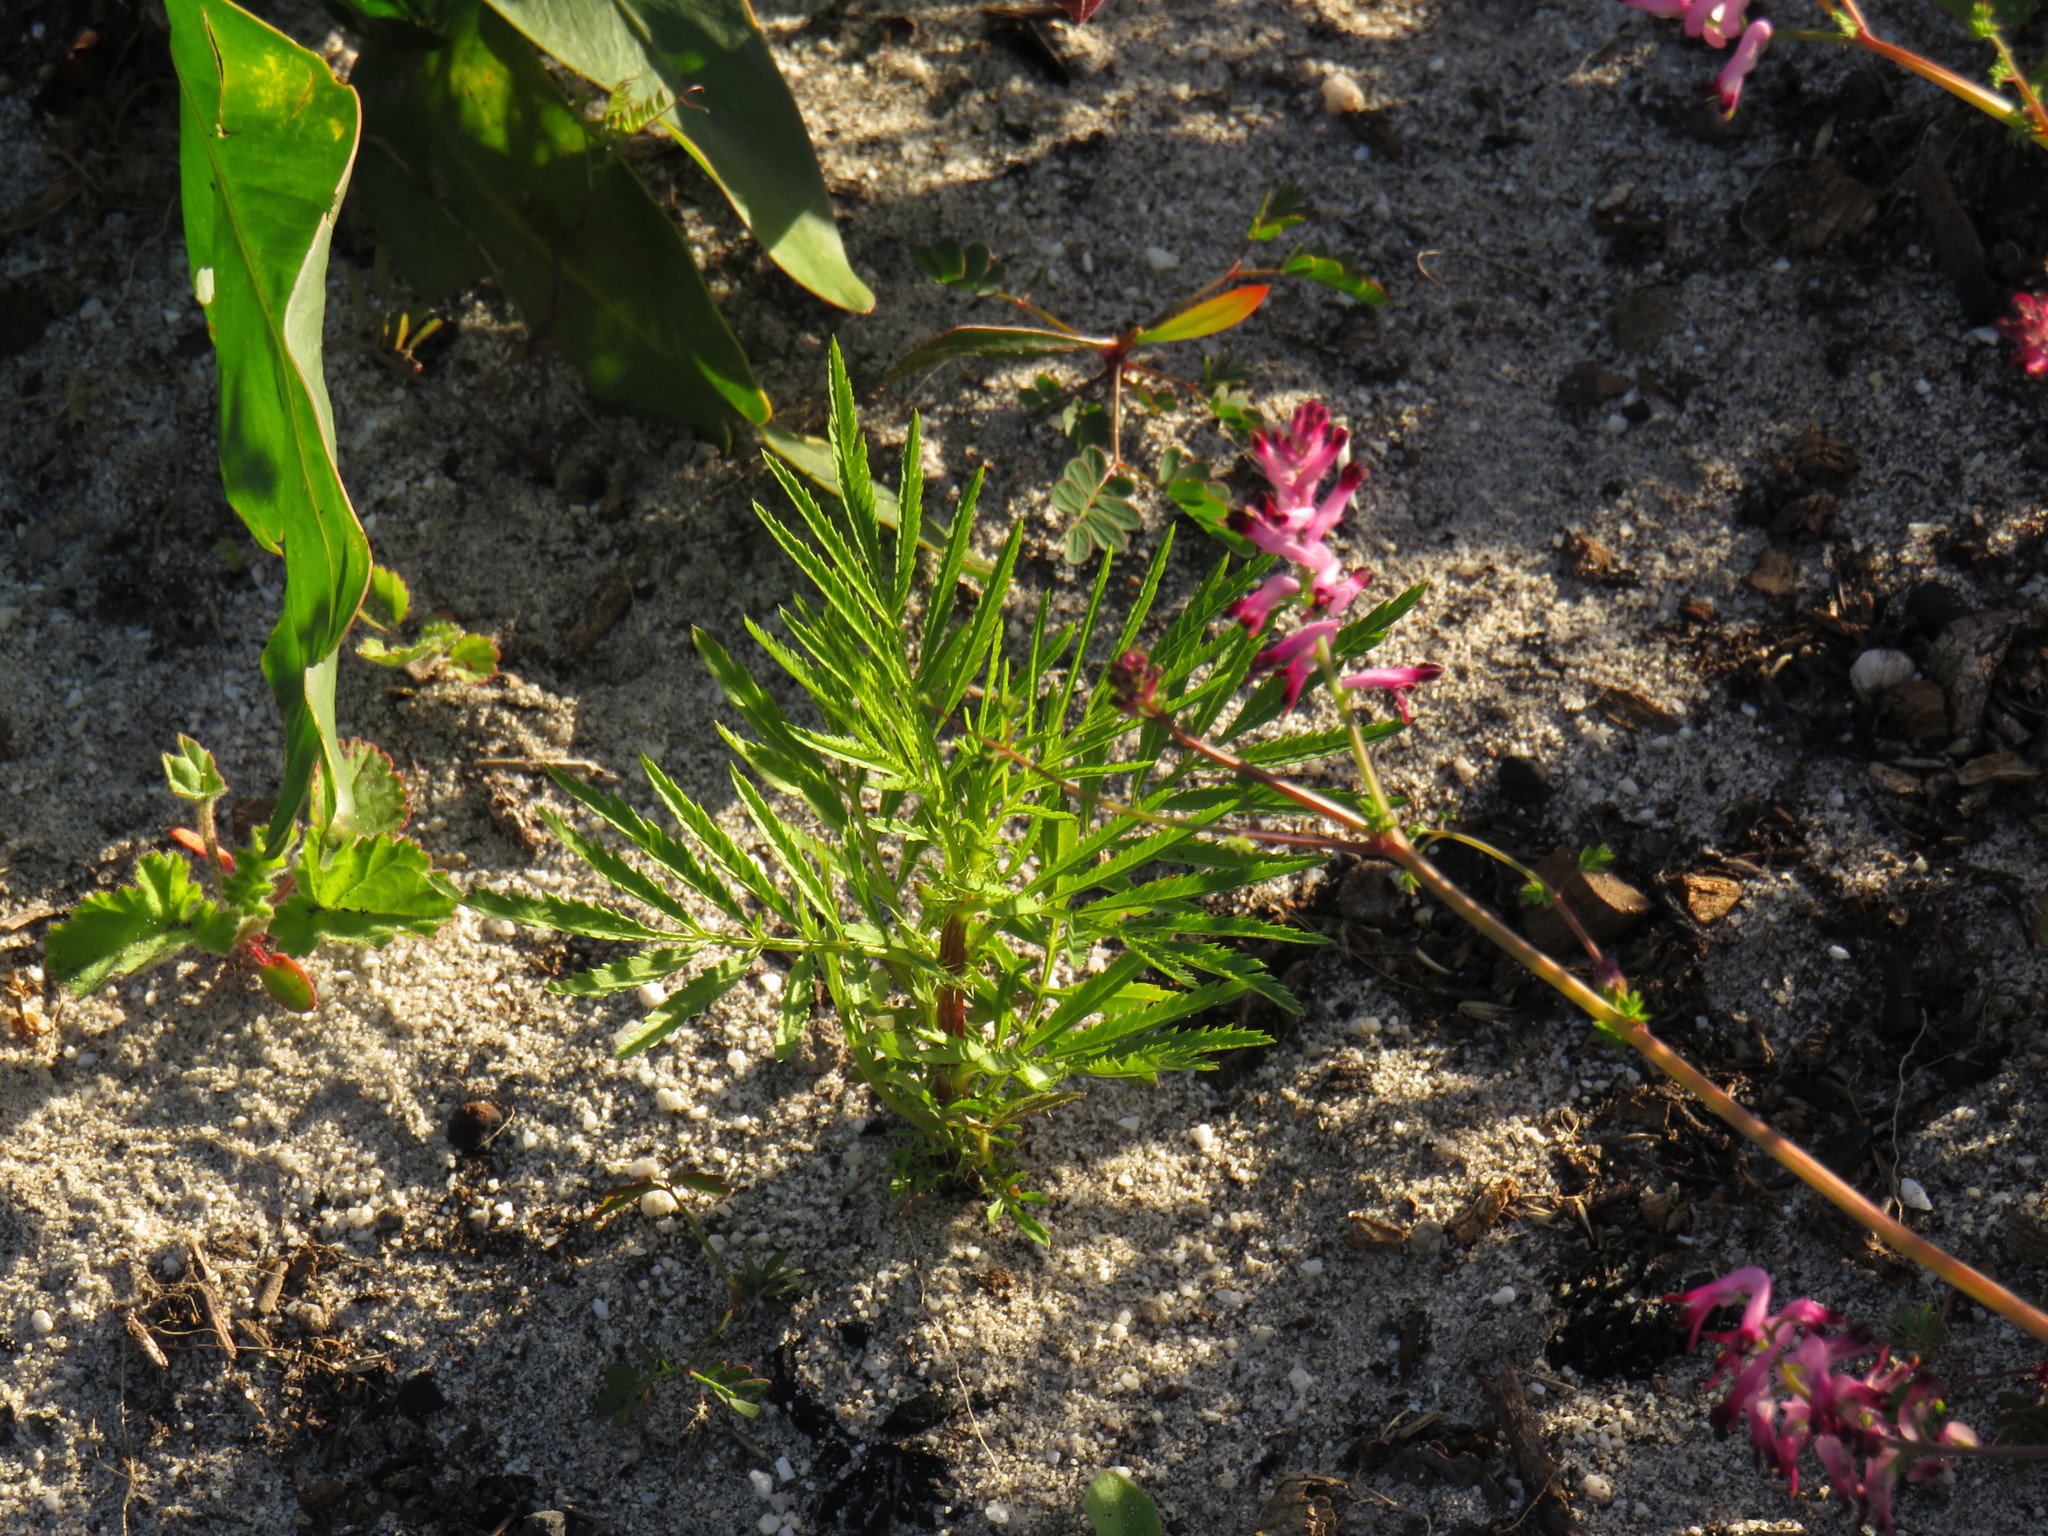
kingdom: Plantae
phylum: Tracheophyta
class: Magnoliopsida
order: Asterales
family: Asteraceae
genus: Tagetes
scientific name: Tagetes minuta
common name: Muster john henry
